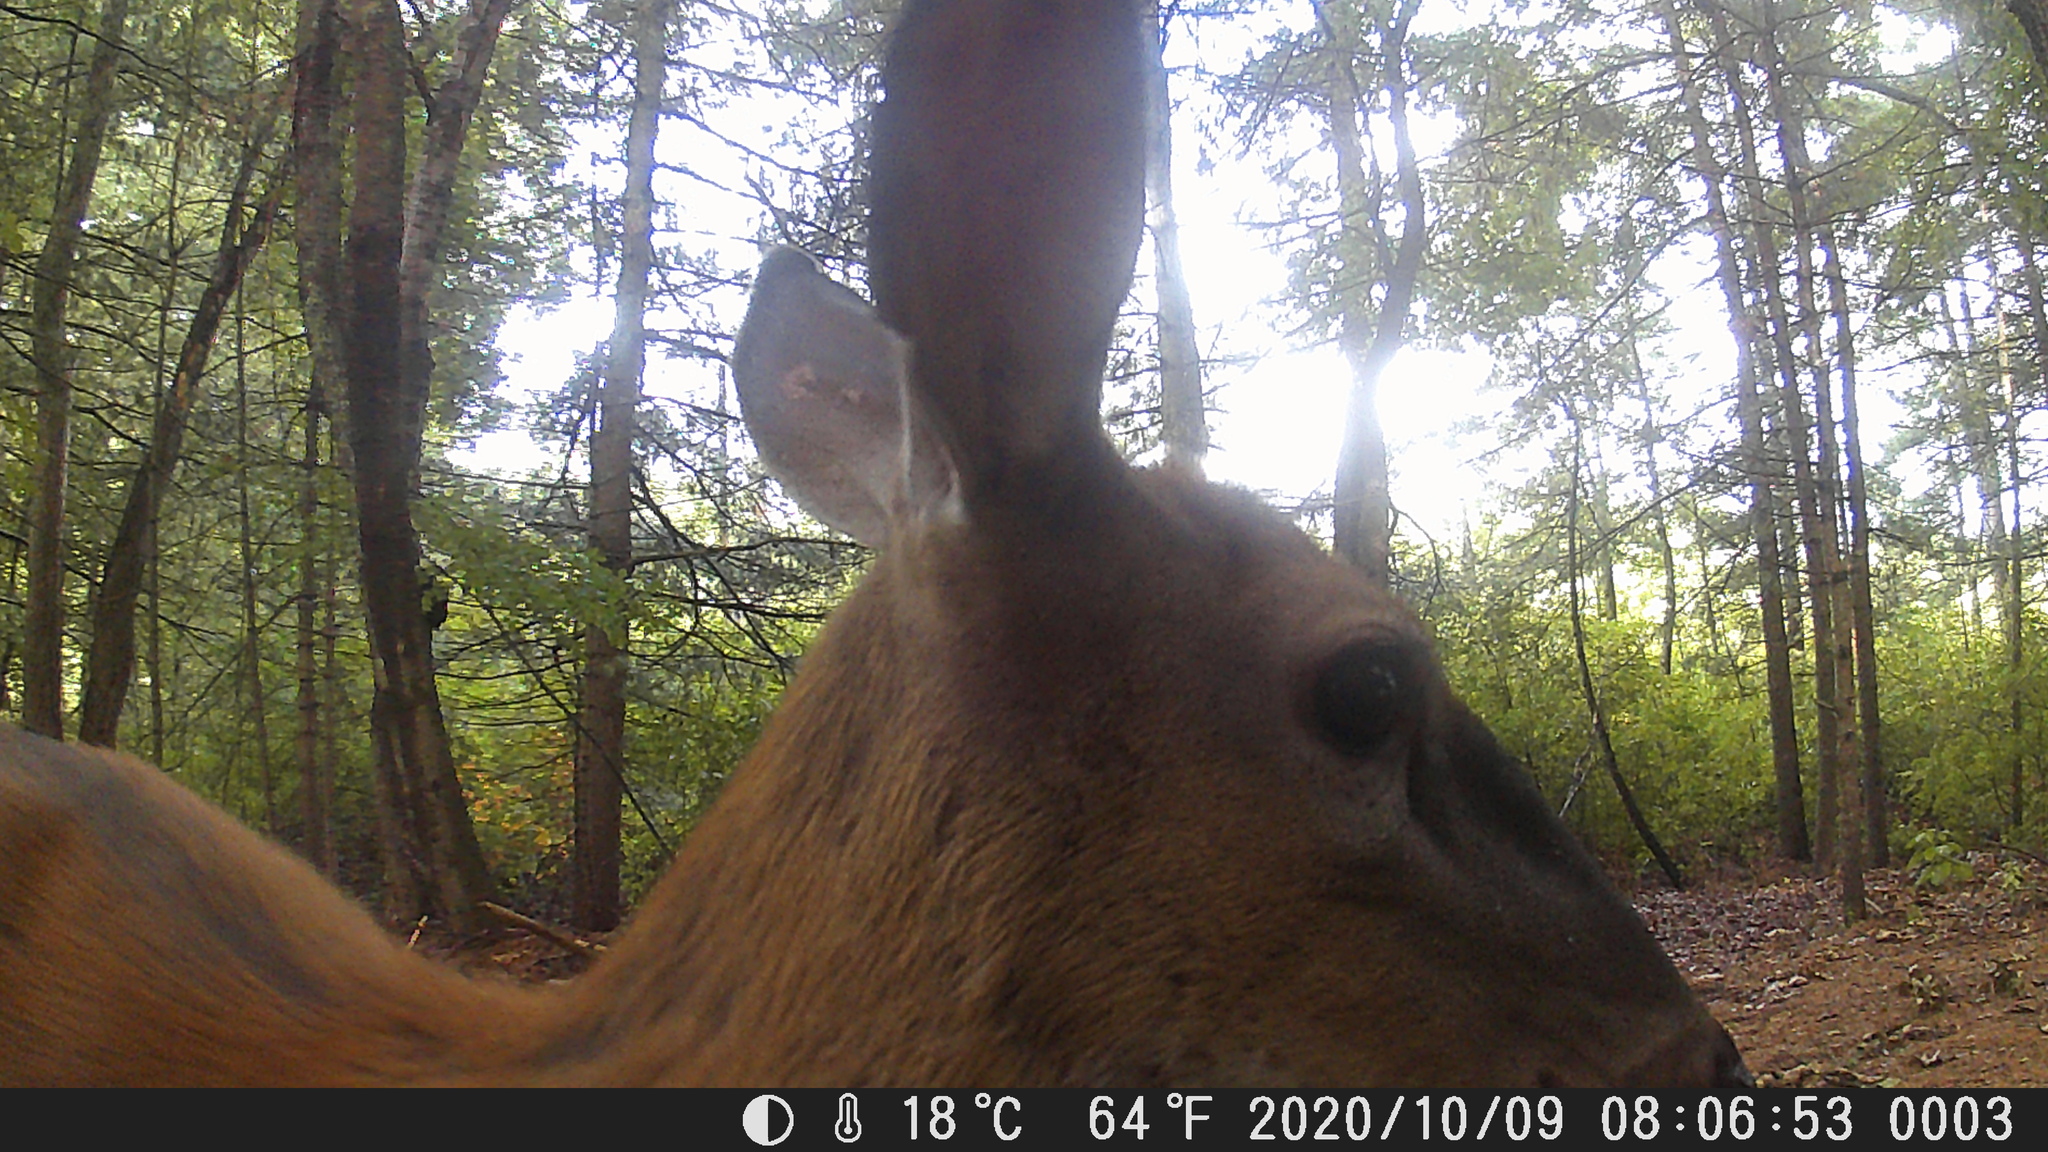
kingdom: Animalia
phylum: Chordata
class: Mammalia
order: Artiodactyla
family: Cervidae
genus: Odocoileus
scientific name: Odocoileus virginianus
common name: White-tailed deer
